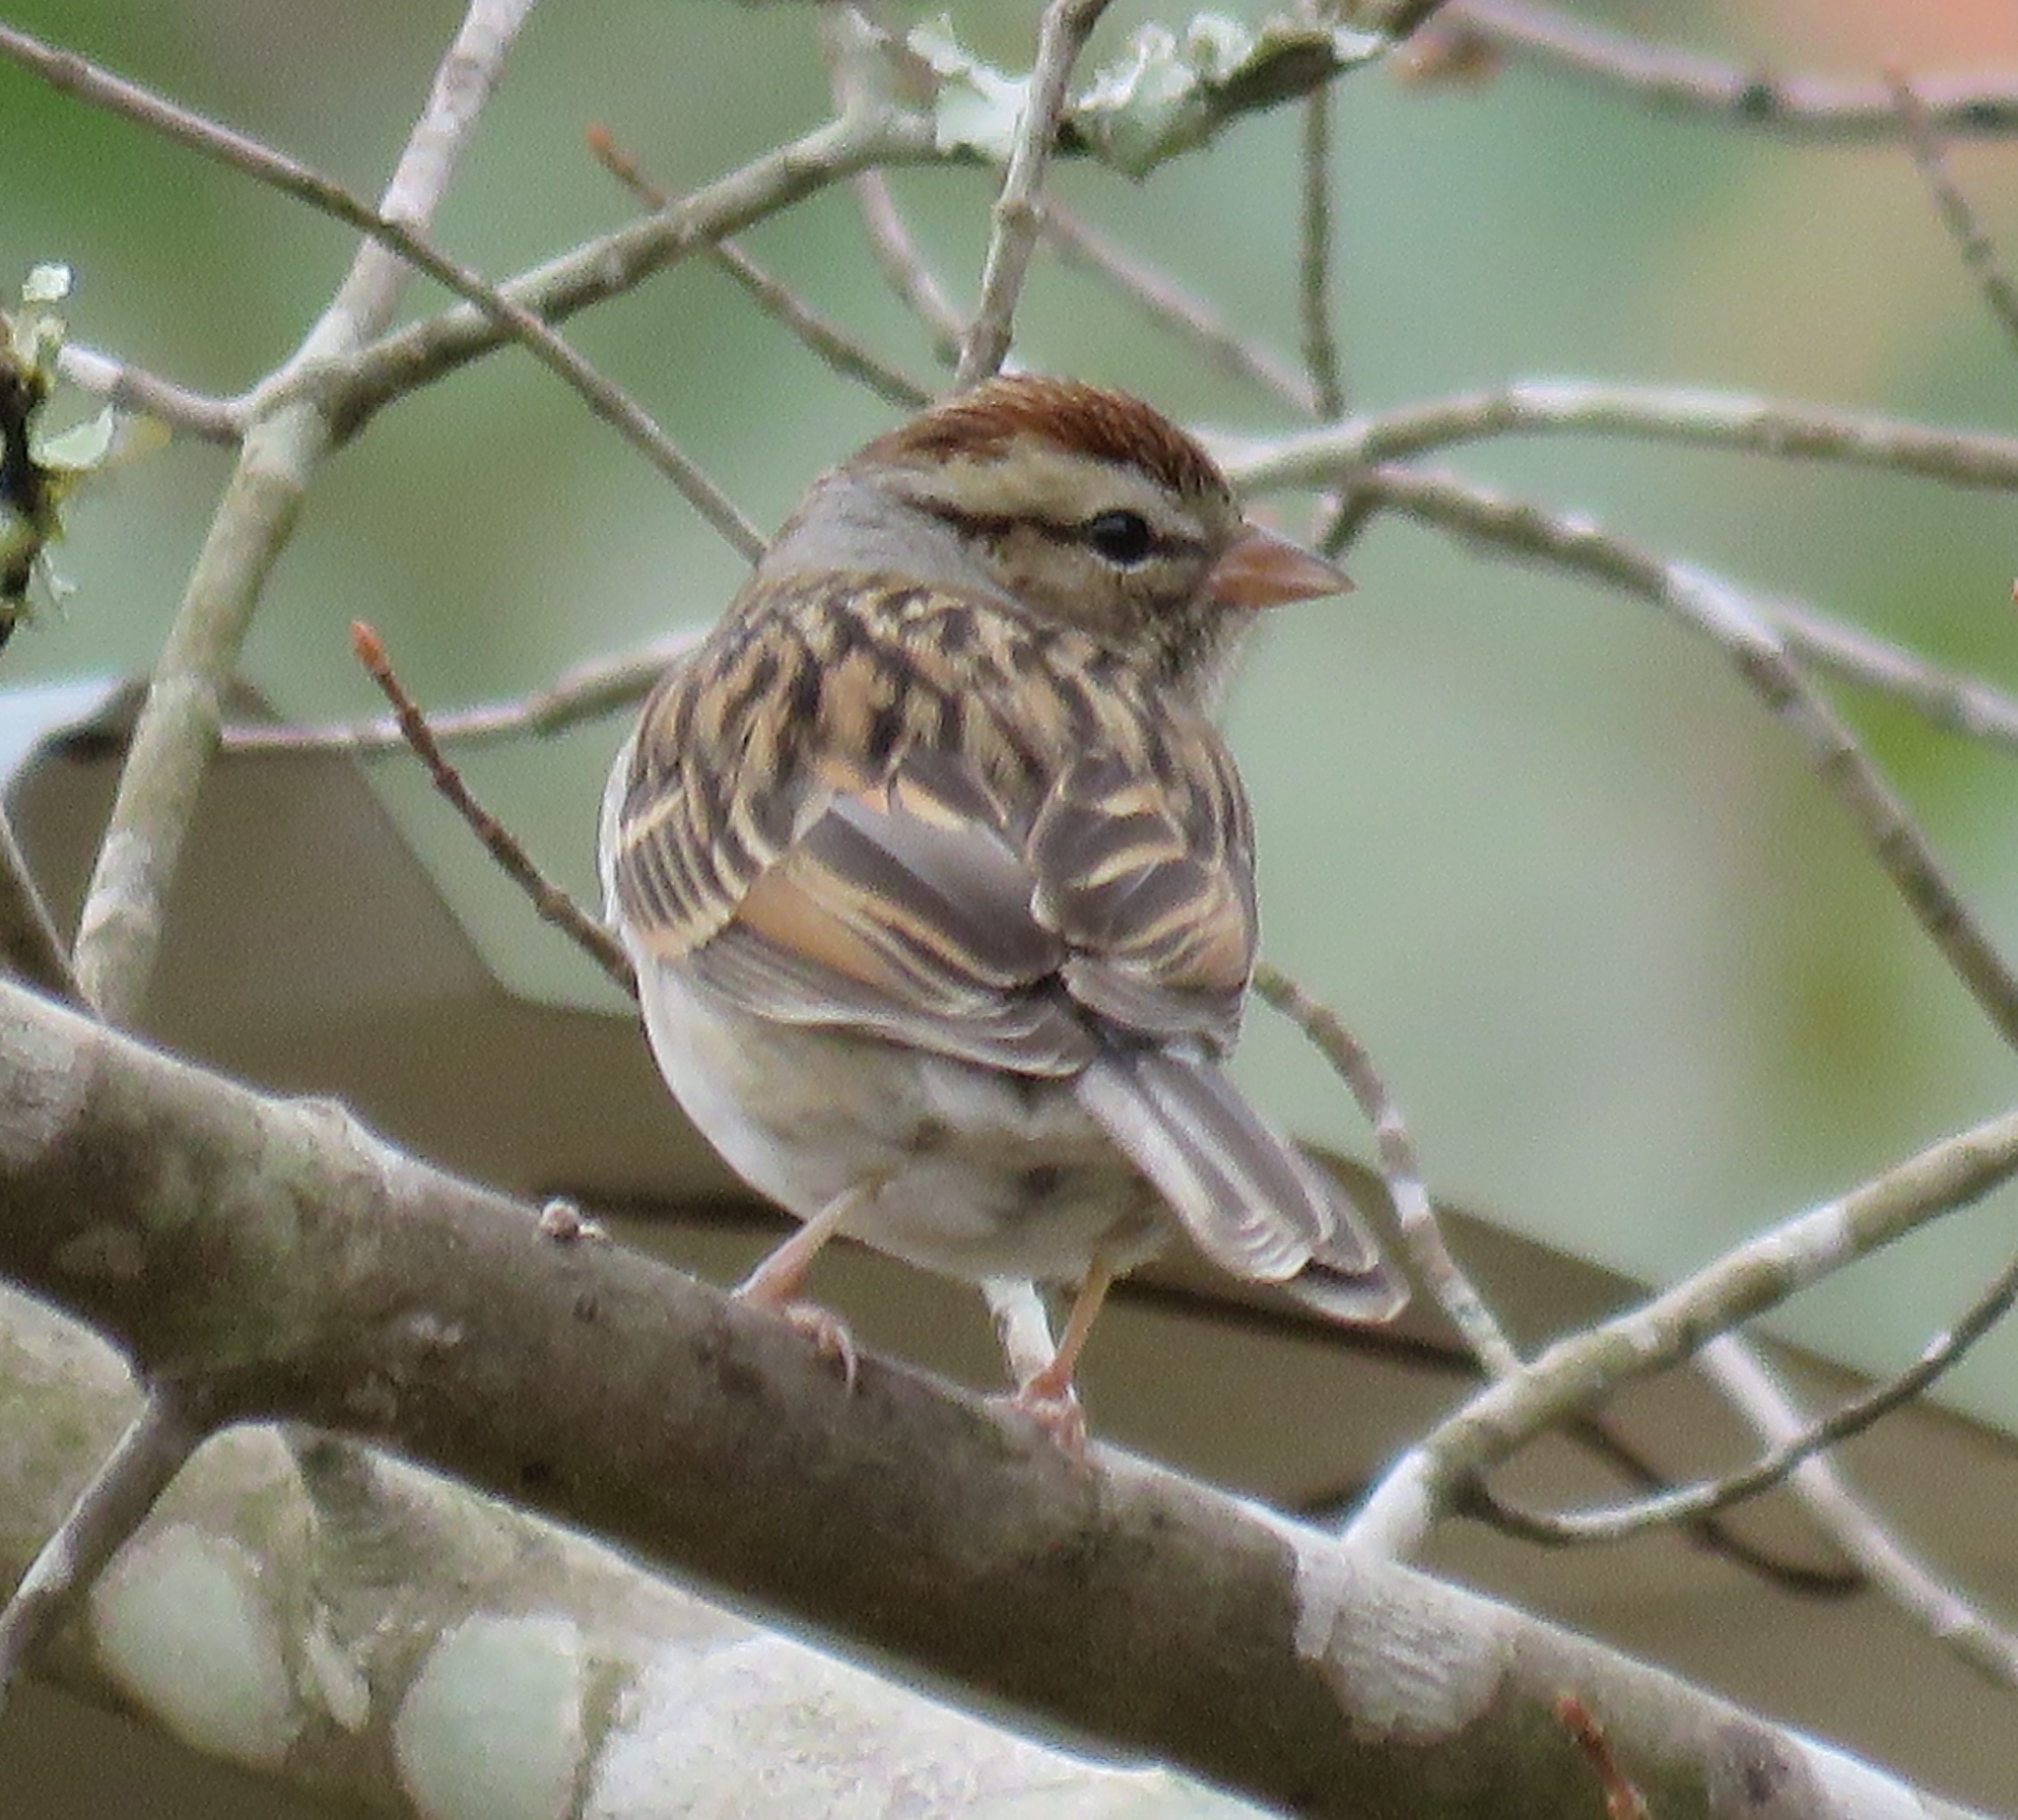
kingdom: Animalia
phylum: Chordata
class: Aves
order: Passeriformes
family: Passerellidae
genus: Spizella
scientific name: Spizella passerina
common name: Chipping sparrow
